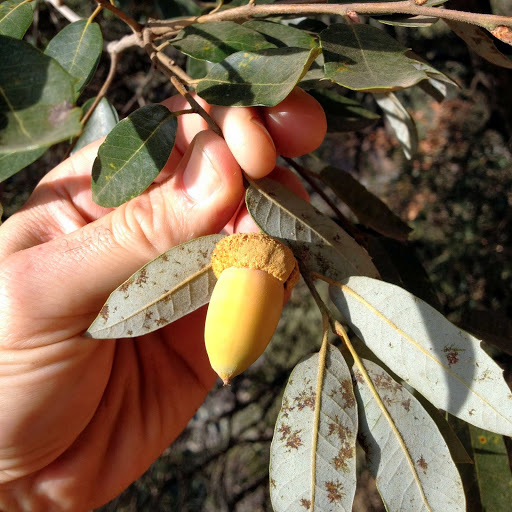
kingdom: Plantae
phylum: Tracheophyta
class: Magnoliopsida
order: Fagales
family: Fagaceae
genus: Quercus
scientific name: Quercus chrysolepis
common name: Canyon live oak
